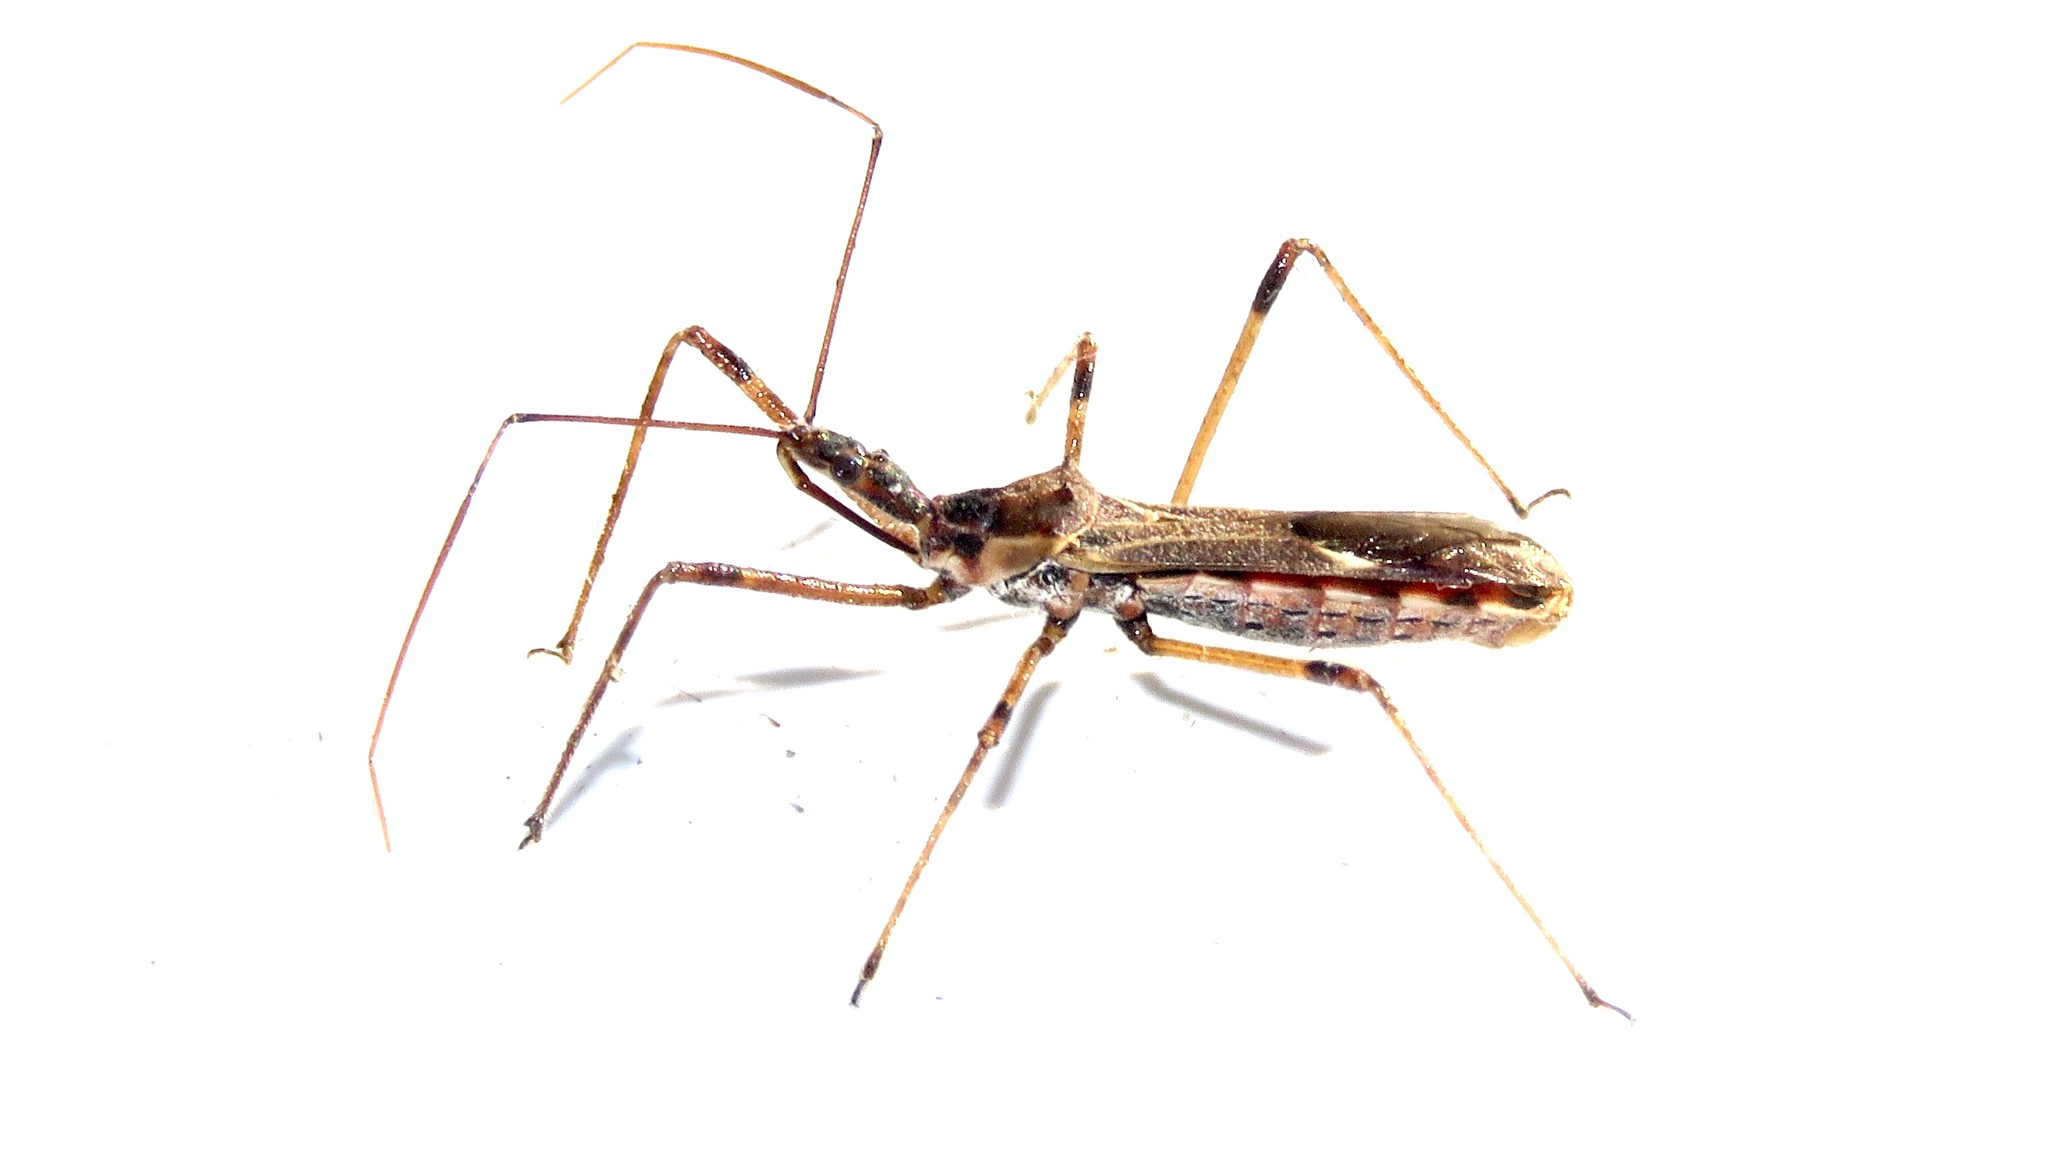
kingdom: Animalia
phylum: Arthropoda
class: Insecta
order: Hemiptera
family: Reduviidae
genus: Zelus
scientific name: Zelus tetracanthus
